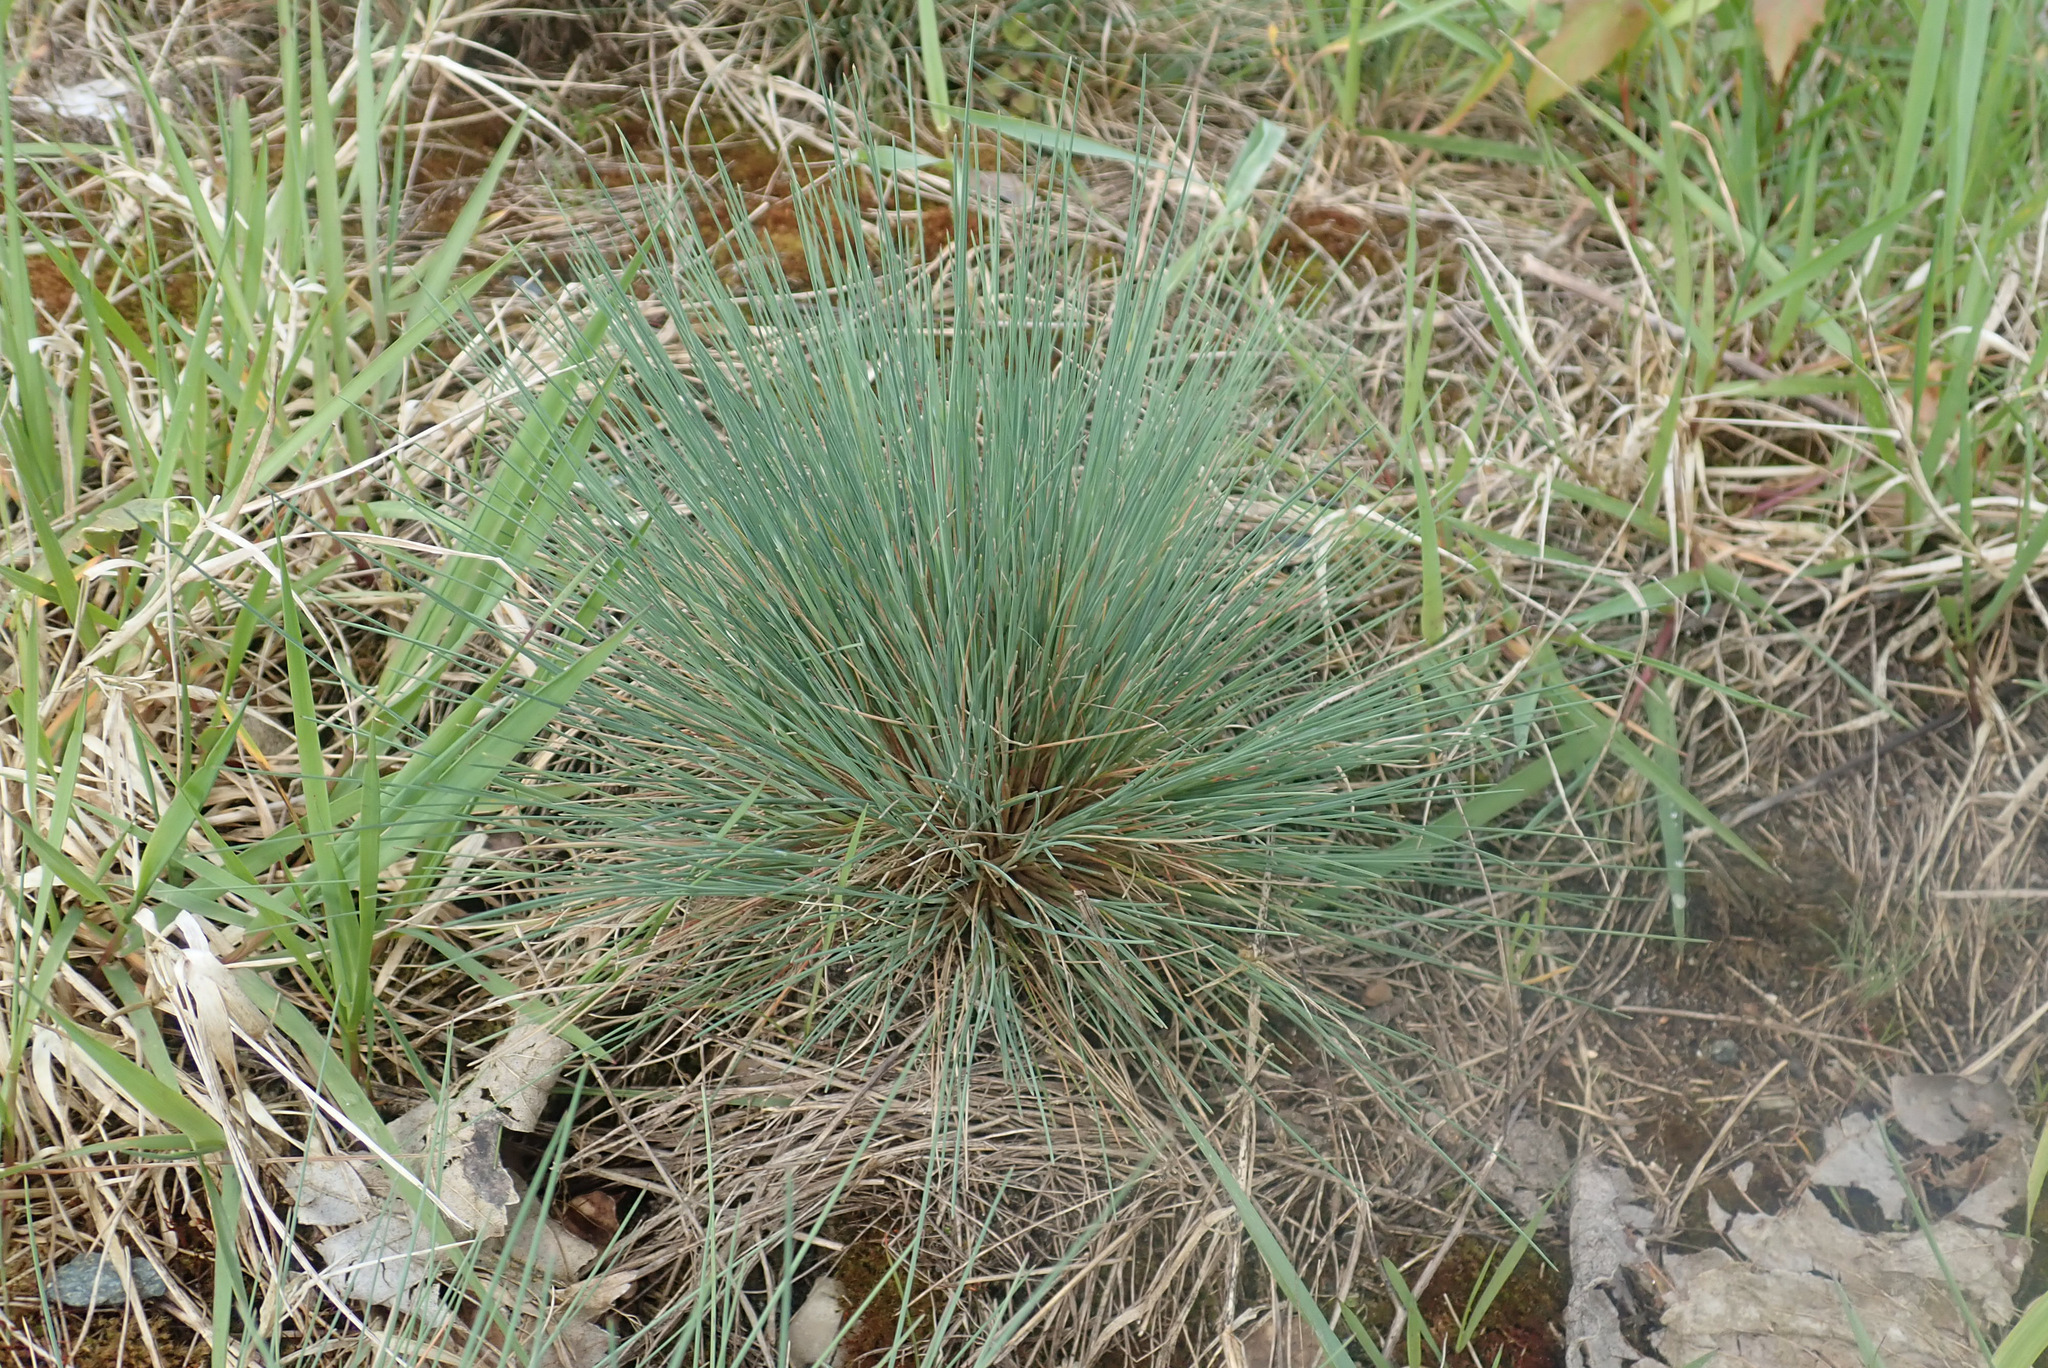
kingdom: Plantae
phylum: Tracheophyta
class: Liliopsida
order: Poales
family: Poaceae
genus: Corynephorus
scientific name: Corynephorus canescens
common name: Grey hair-grass
